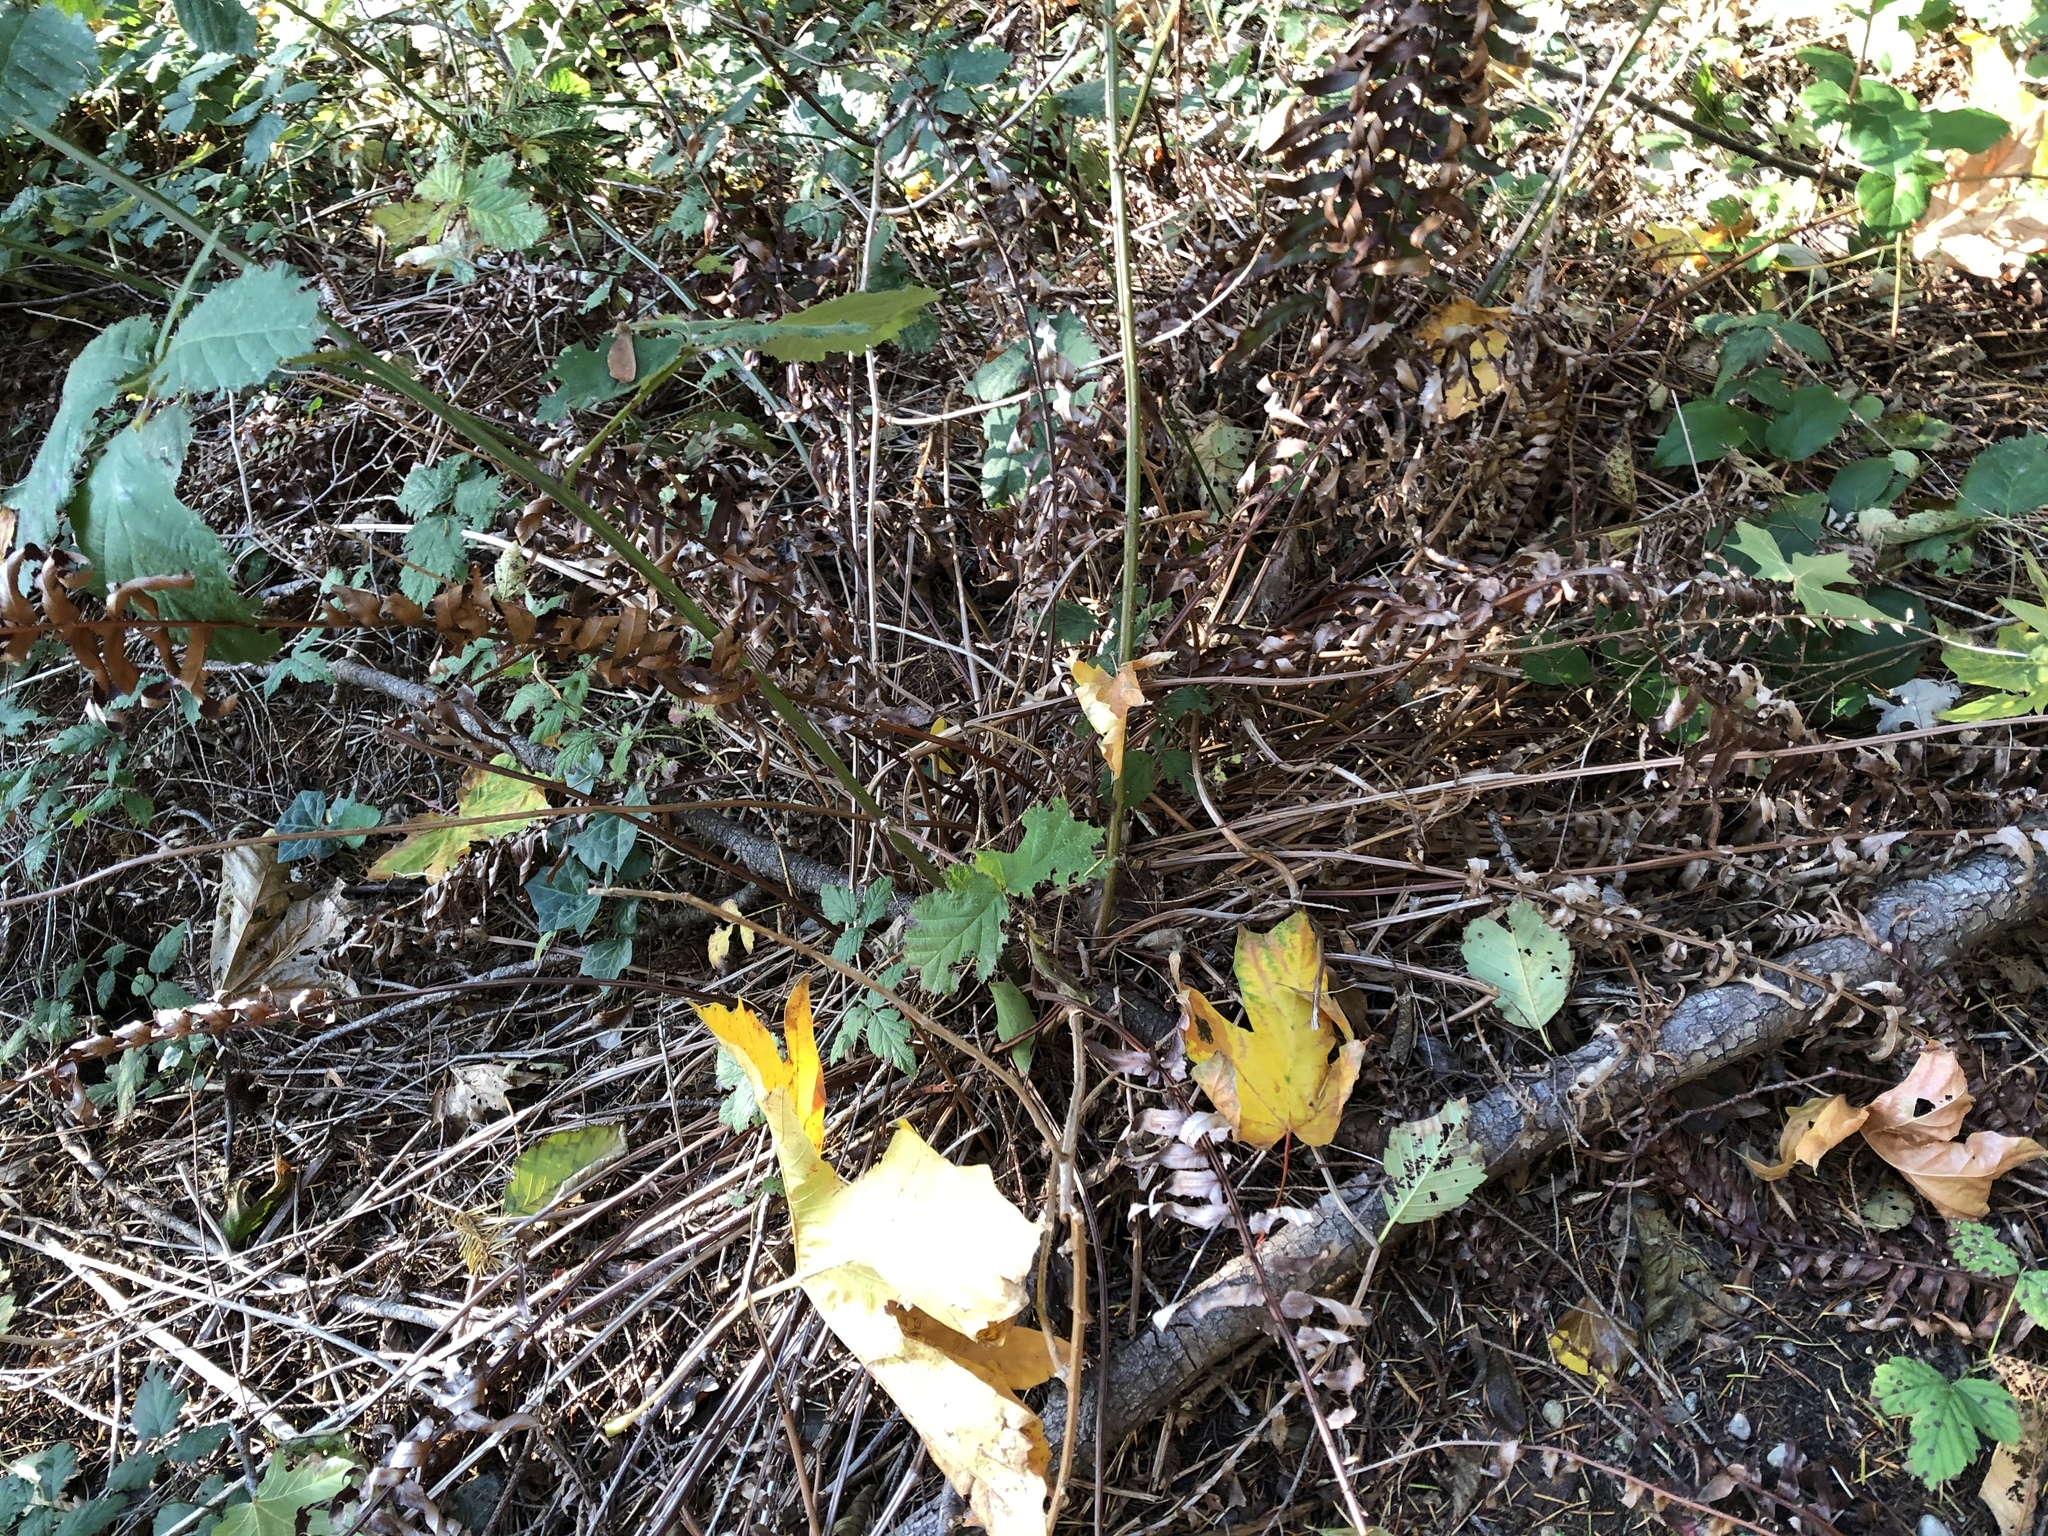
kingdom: Plantae
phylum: Tracheophyta
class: Polypodiopsida
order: Polypodiales
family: Dryopteridaceae
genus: Polystichum
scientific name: Polystichum munitum
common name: Western sword-fern
